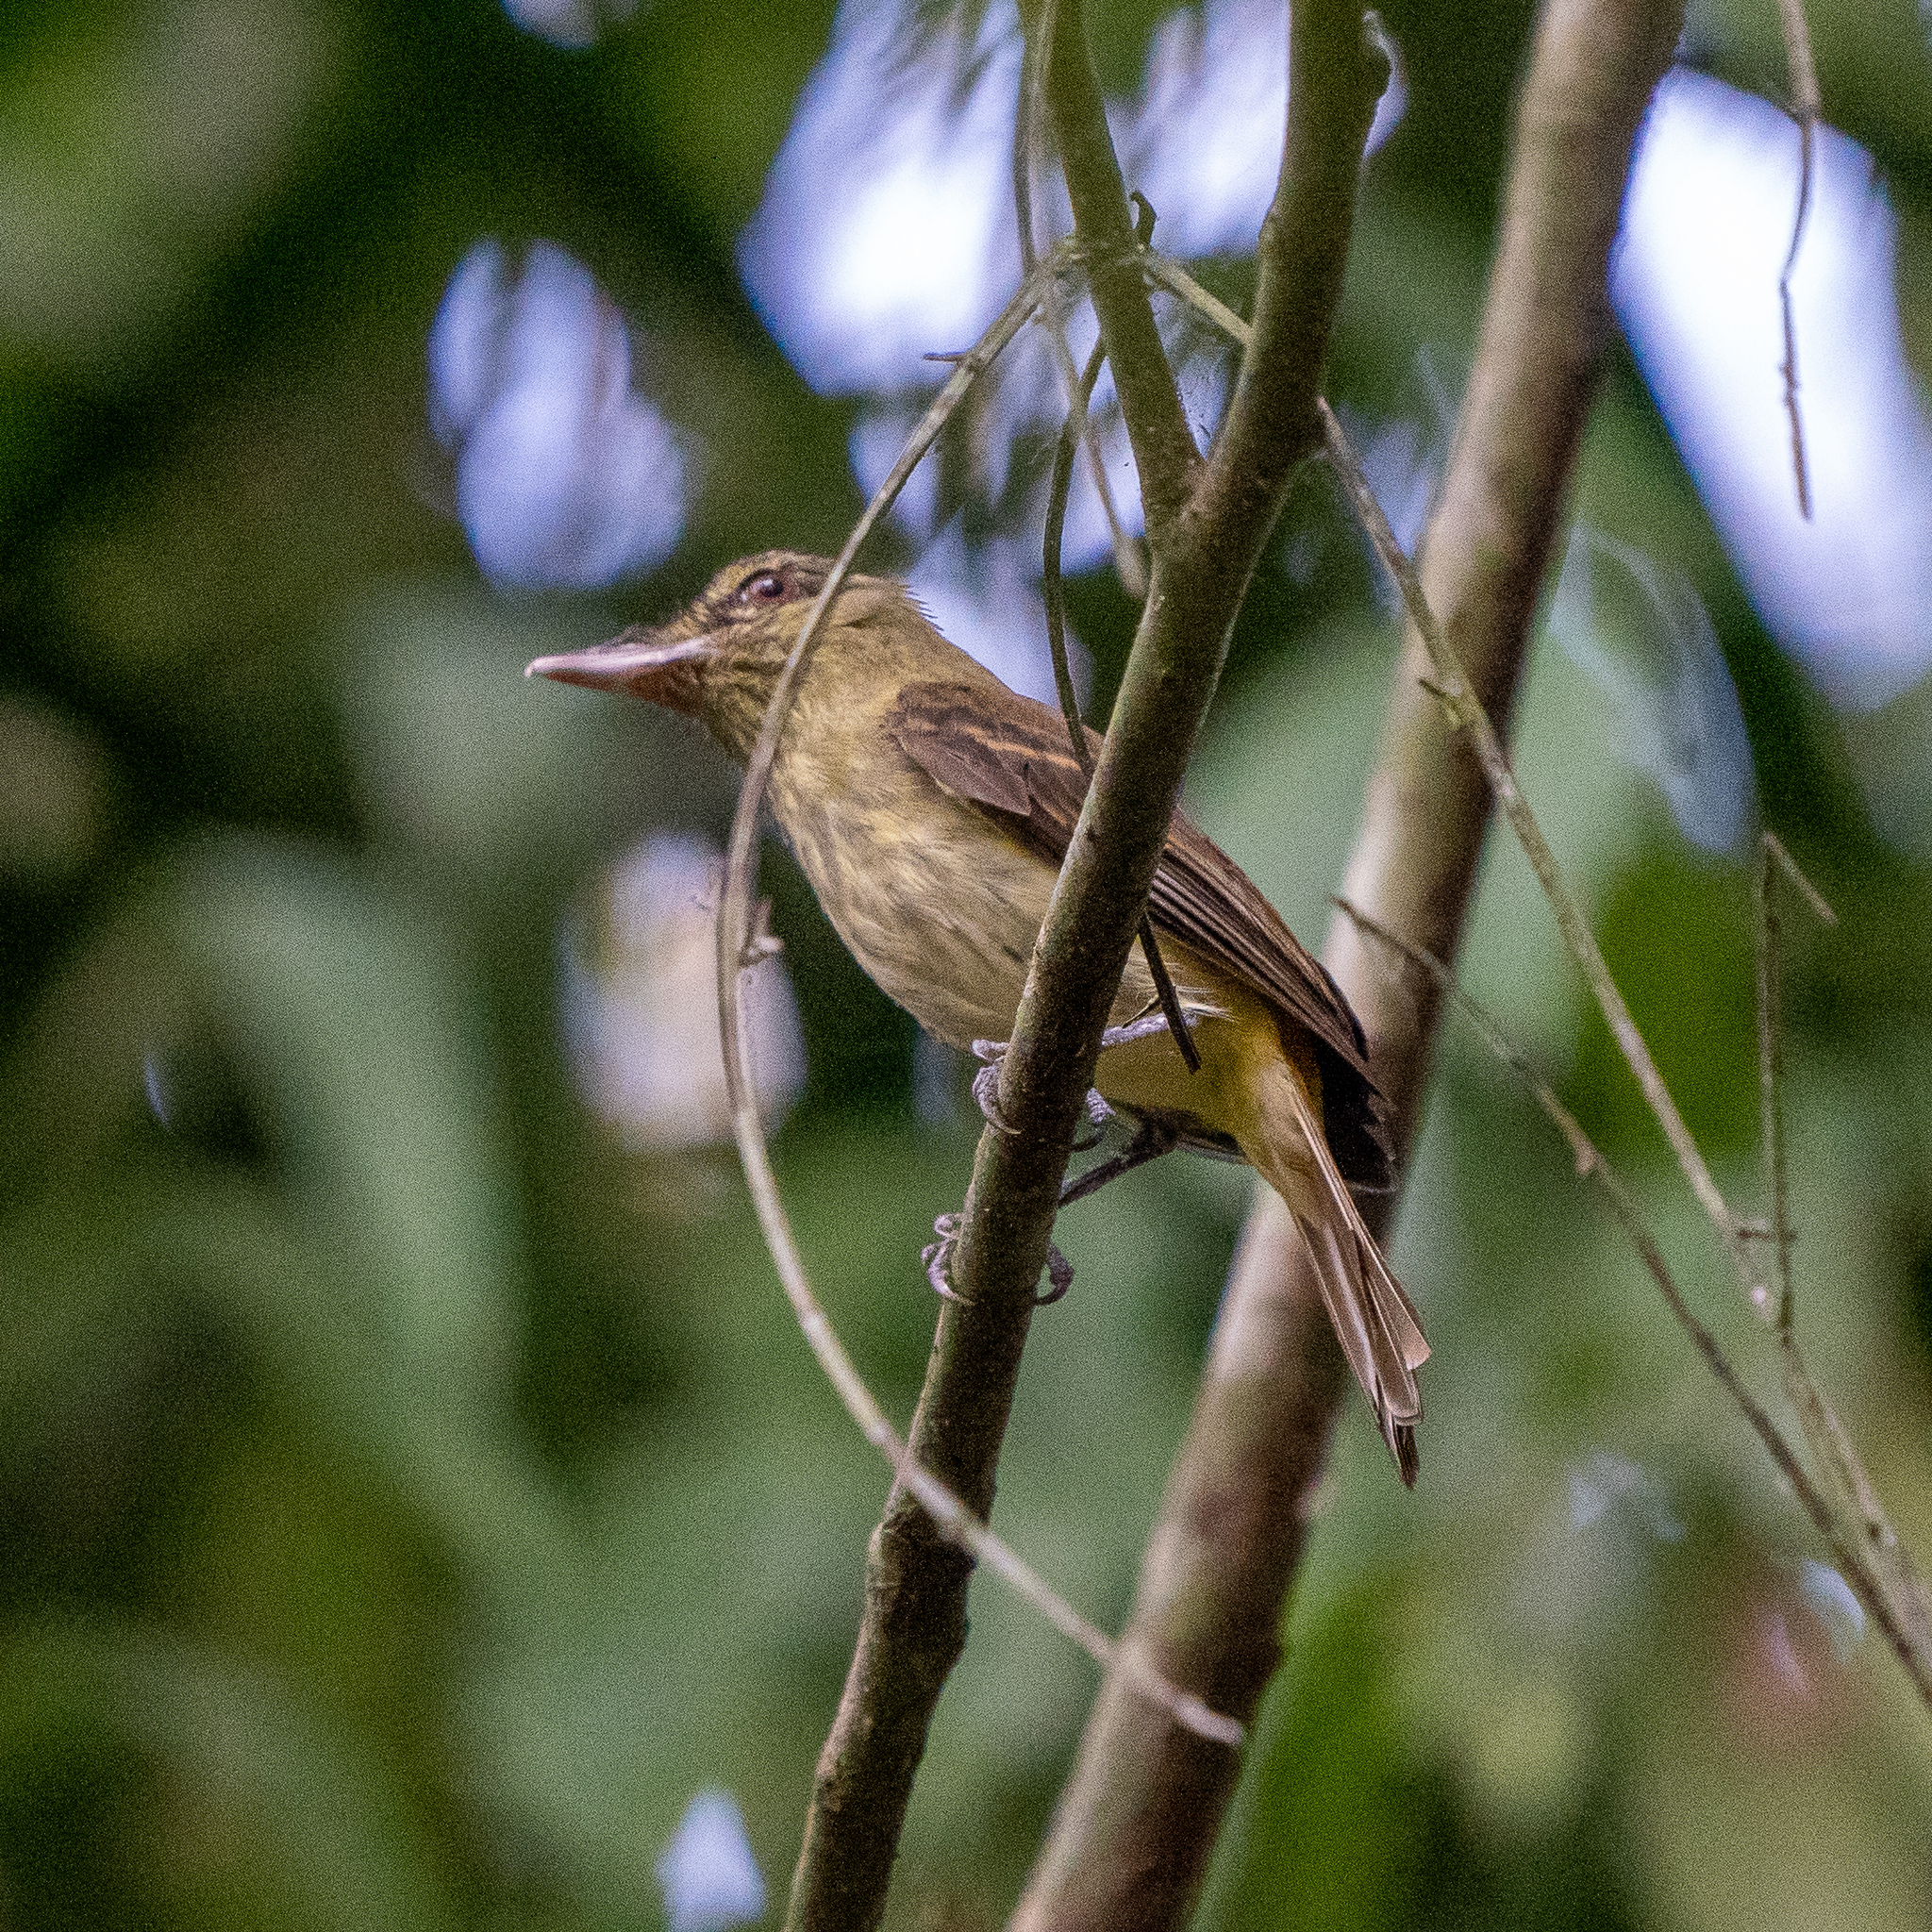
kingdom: Animalia
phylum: Chordata
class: Aves
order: Passeriformes
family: Tyrannidae
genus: Attila
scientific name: Attila spadiceus
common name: Bright-rumped attila
